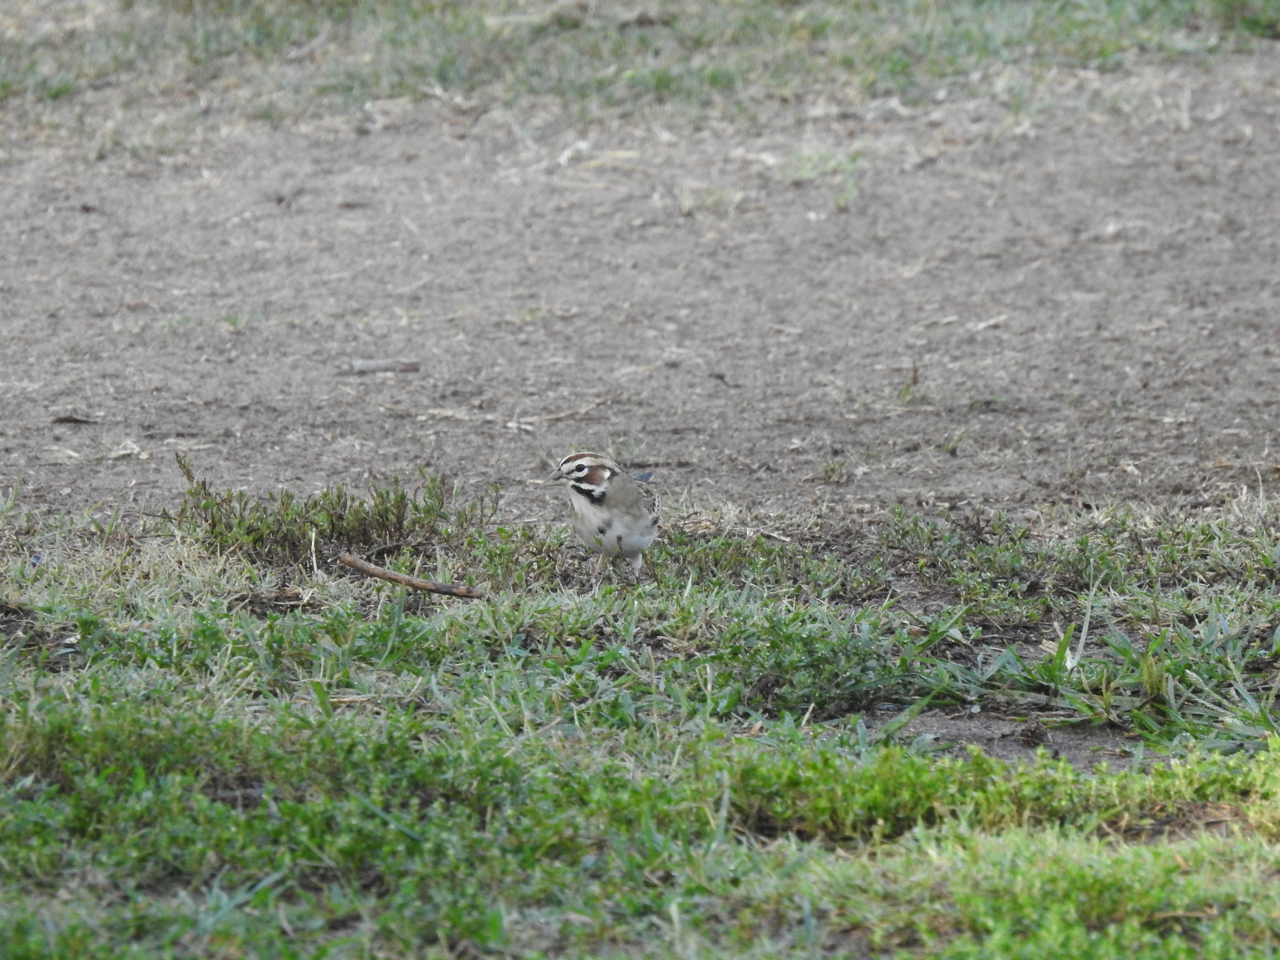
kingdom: Animalia
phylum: Chordata
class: Aves
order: Passeriformes
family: Passerellidae
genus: Chondestes
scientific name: Chondestes grammacus
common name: Lark sparrow
